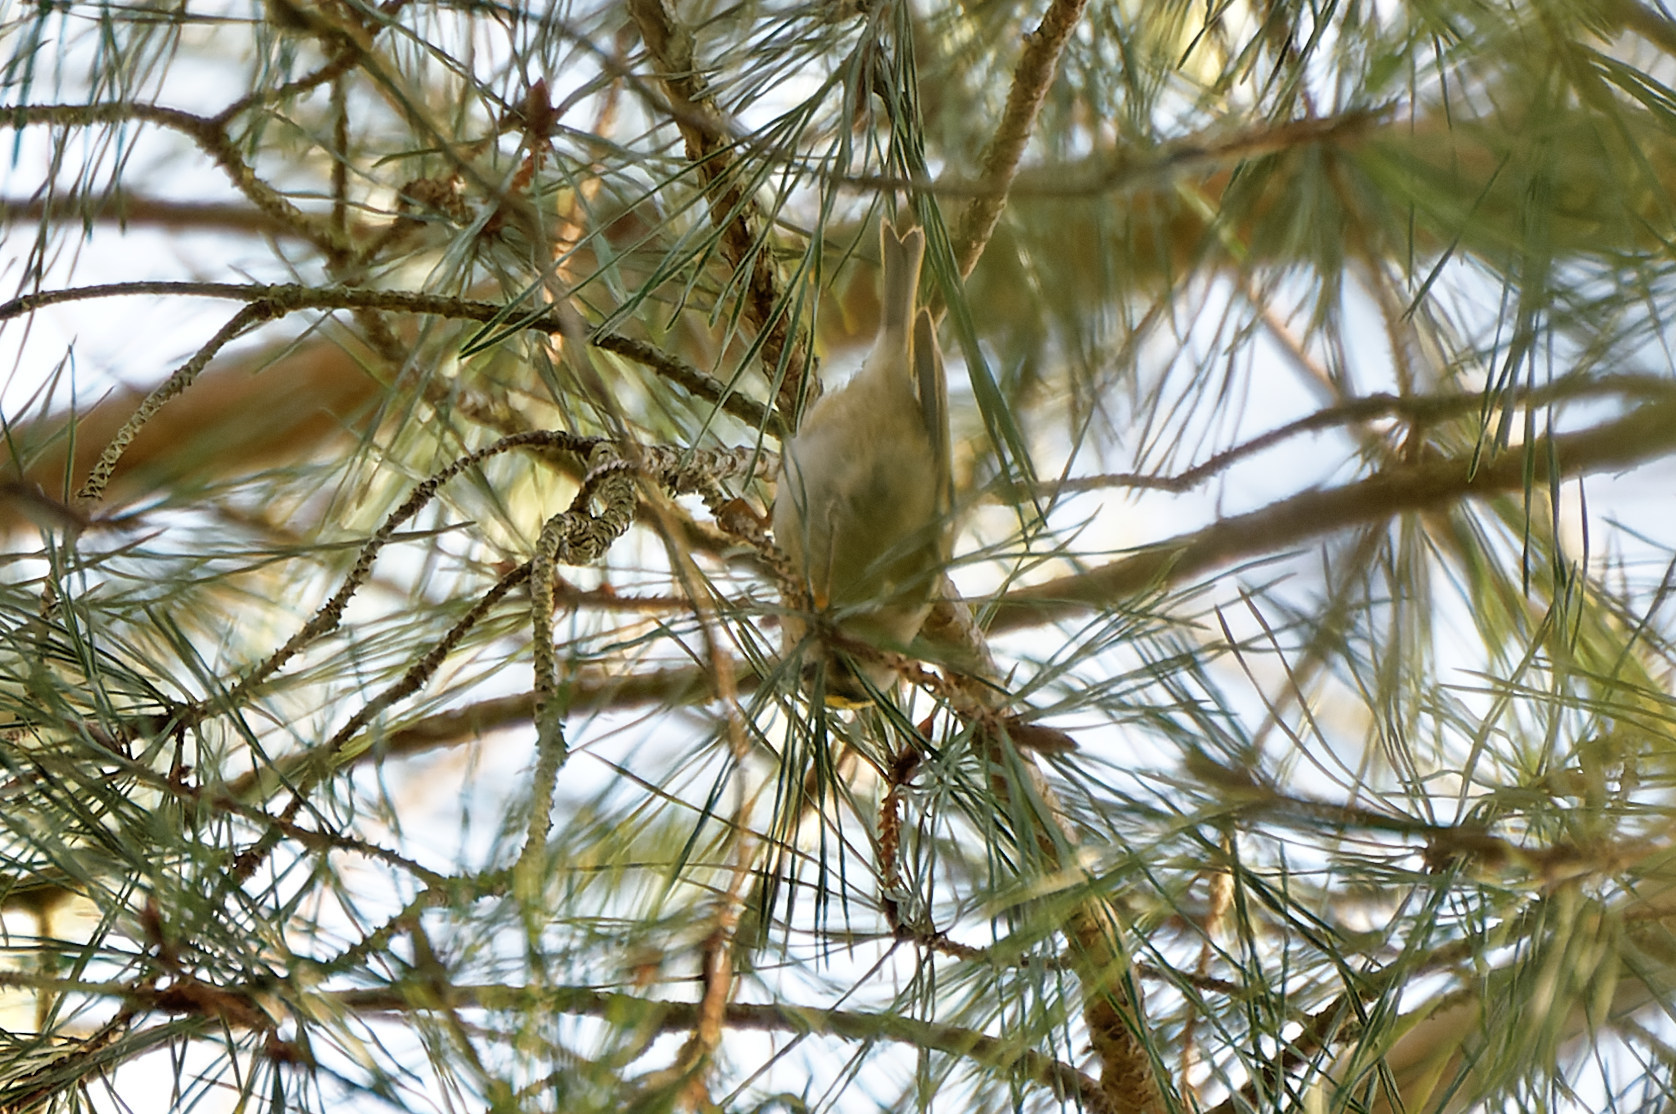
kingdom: Animalia
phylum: Chordata
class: Aves
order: Passeriformes
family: Regulidae
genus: Regulus
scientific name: Regulus regulus
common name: Goldcrest
